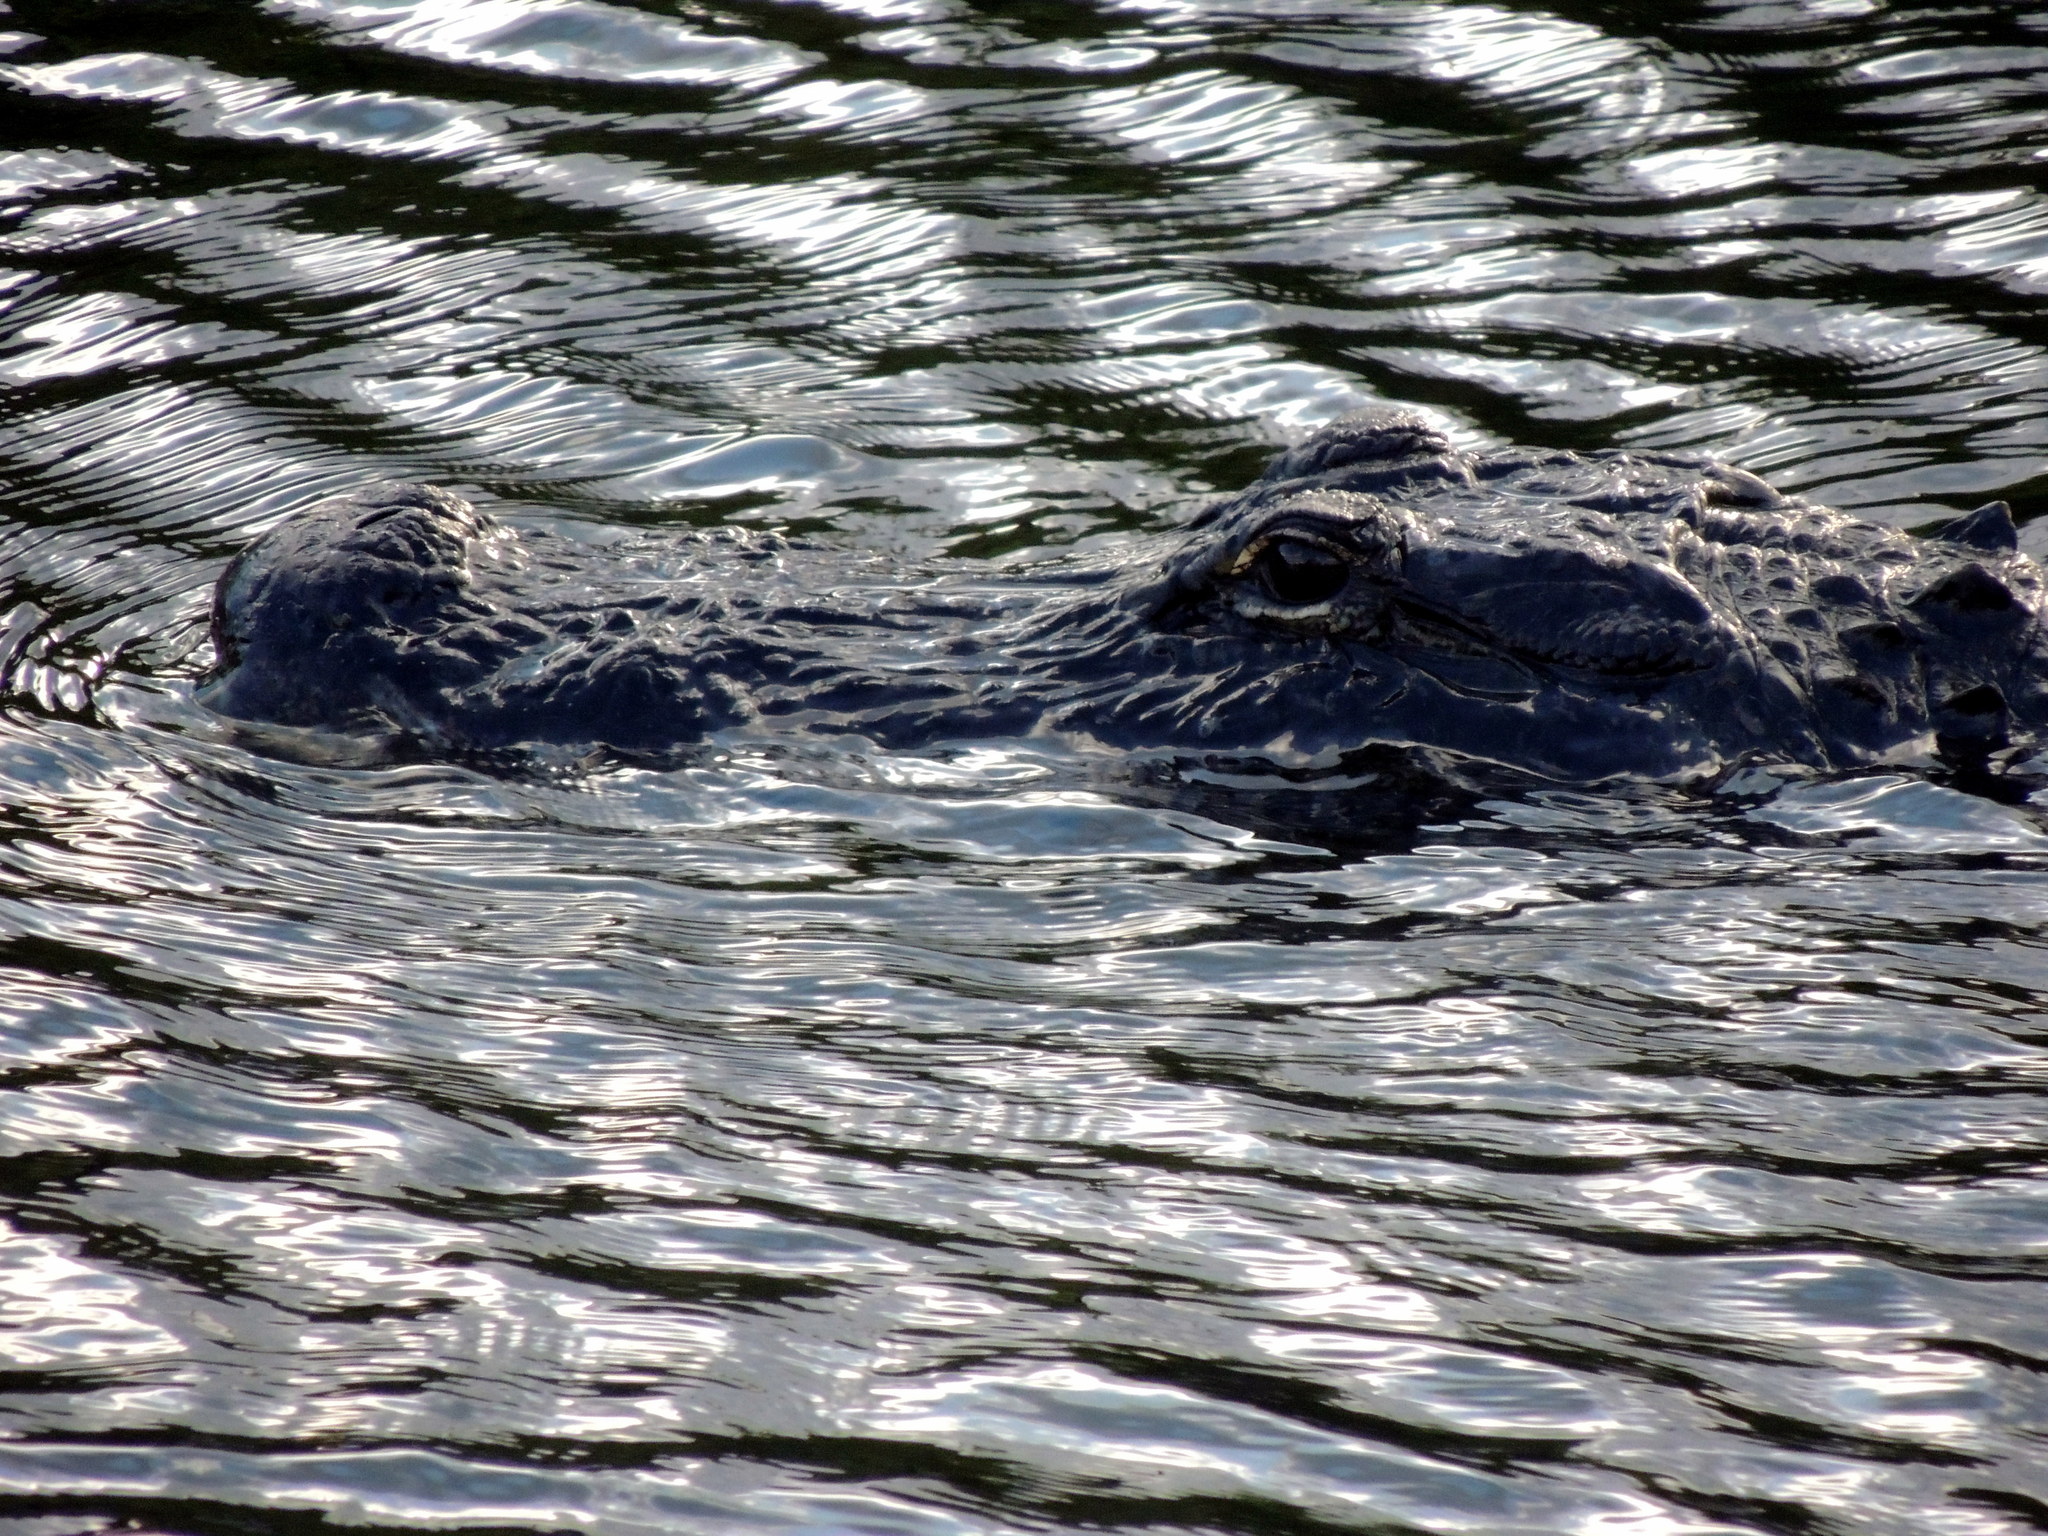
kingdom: Animalia
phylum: Chordata
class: Crocodylia
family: Alligatoridae
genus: Alligator
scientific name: Alligator mississippiensis
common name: American alligator
